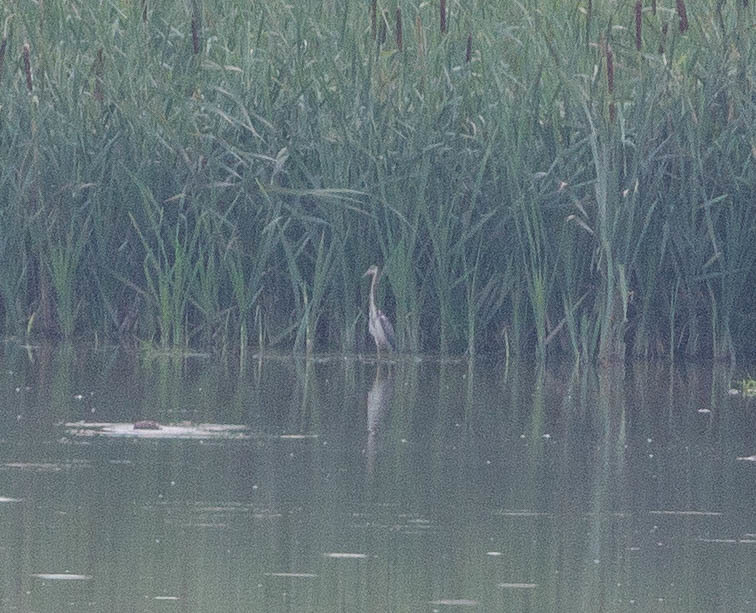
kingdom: Animalia
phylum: Chordata
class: Aves
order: Pelecaniformes
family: Ardeidae
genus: Egretta
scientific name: Egretta tricolor
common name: Tricolored heron
